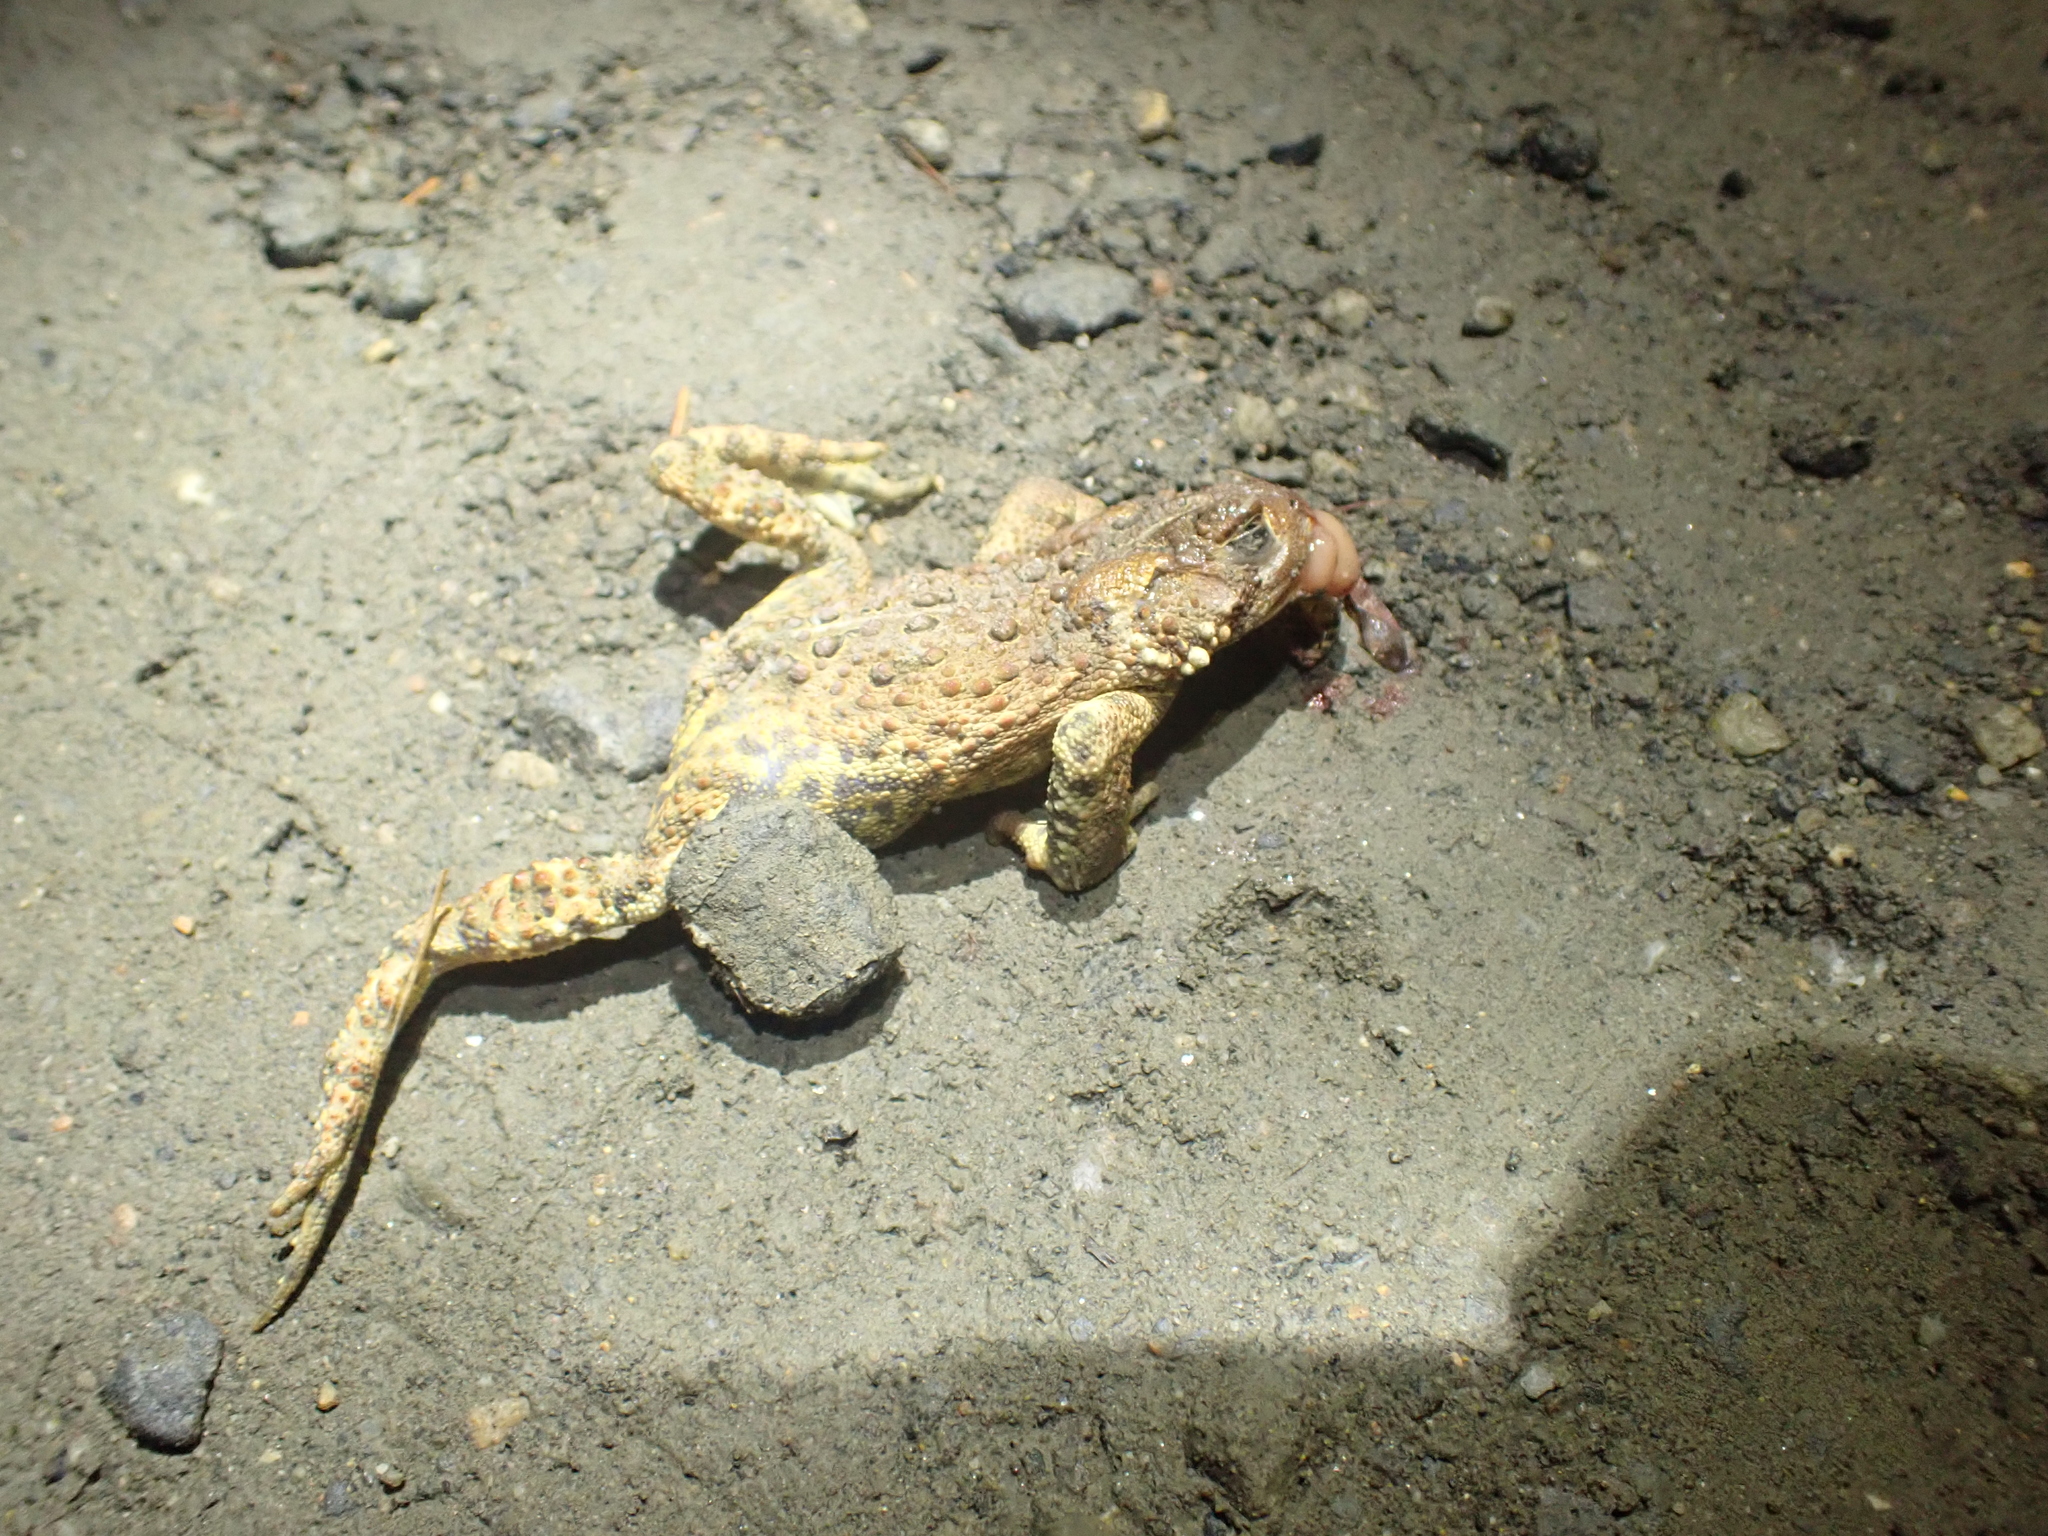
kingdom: Animalia
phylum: Chordata
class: Amphibia
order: Anura
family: Bufonidae
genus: Anaxyrus
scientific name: Anaxyrus americanus
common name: American toad
